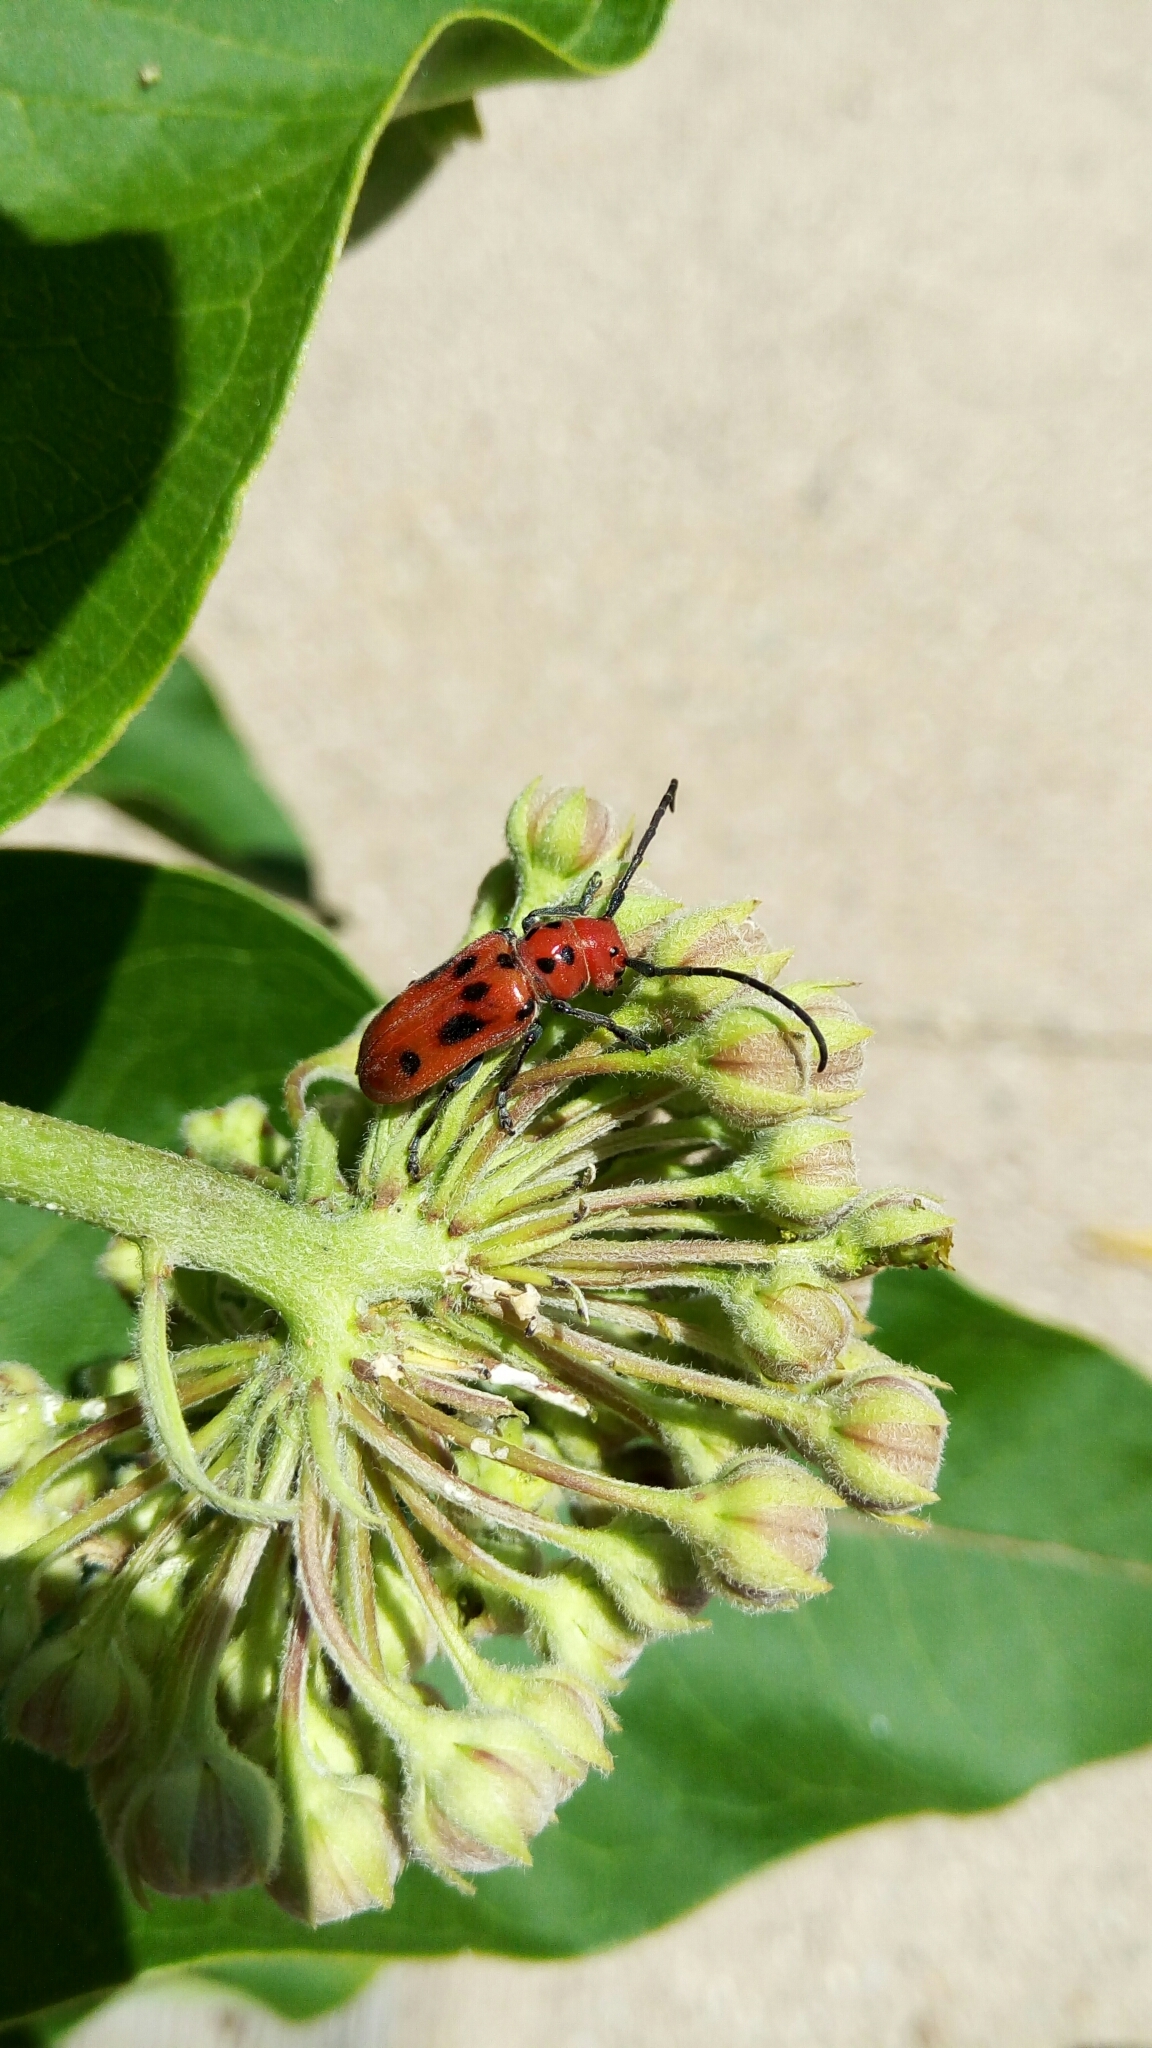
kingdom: Animalia
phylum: Arthropoda
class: Insecta
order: Coleoptera
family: Cerambycidae
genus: Tetraopes
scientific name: Tetraopes tetrophthalmus
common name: Red milkweed beetle
